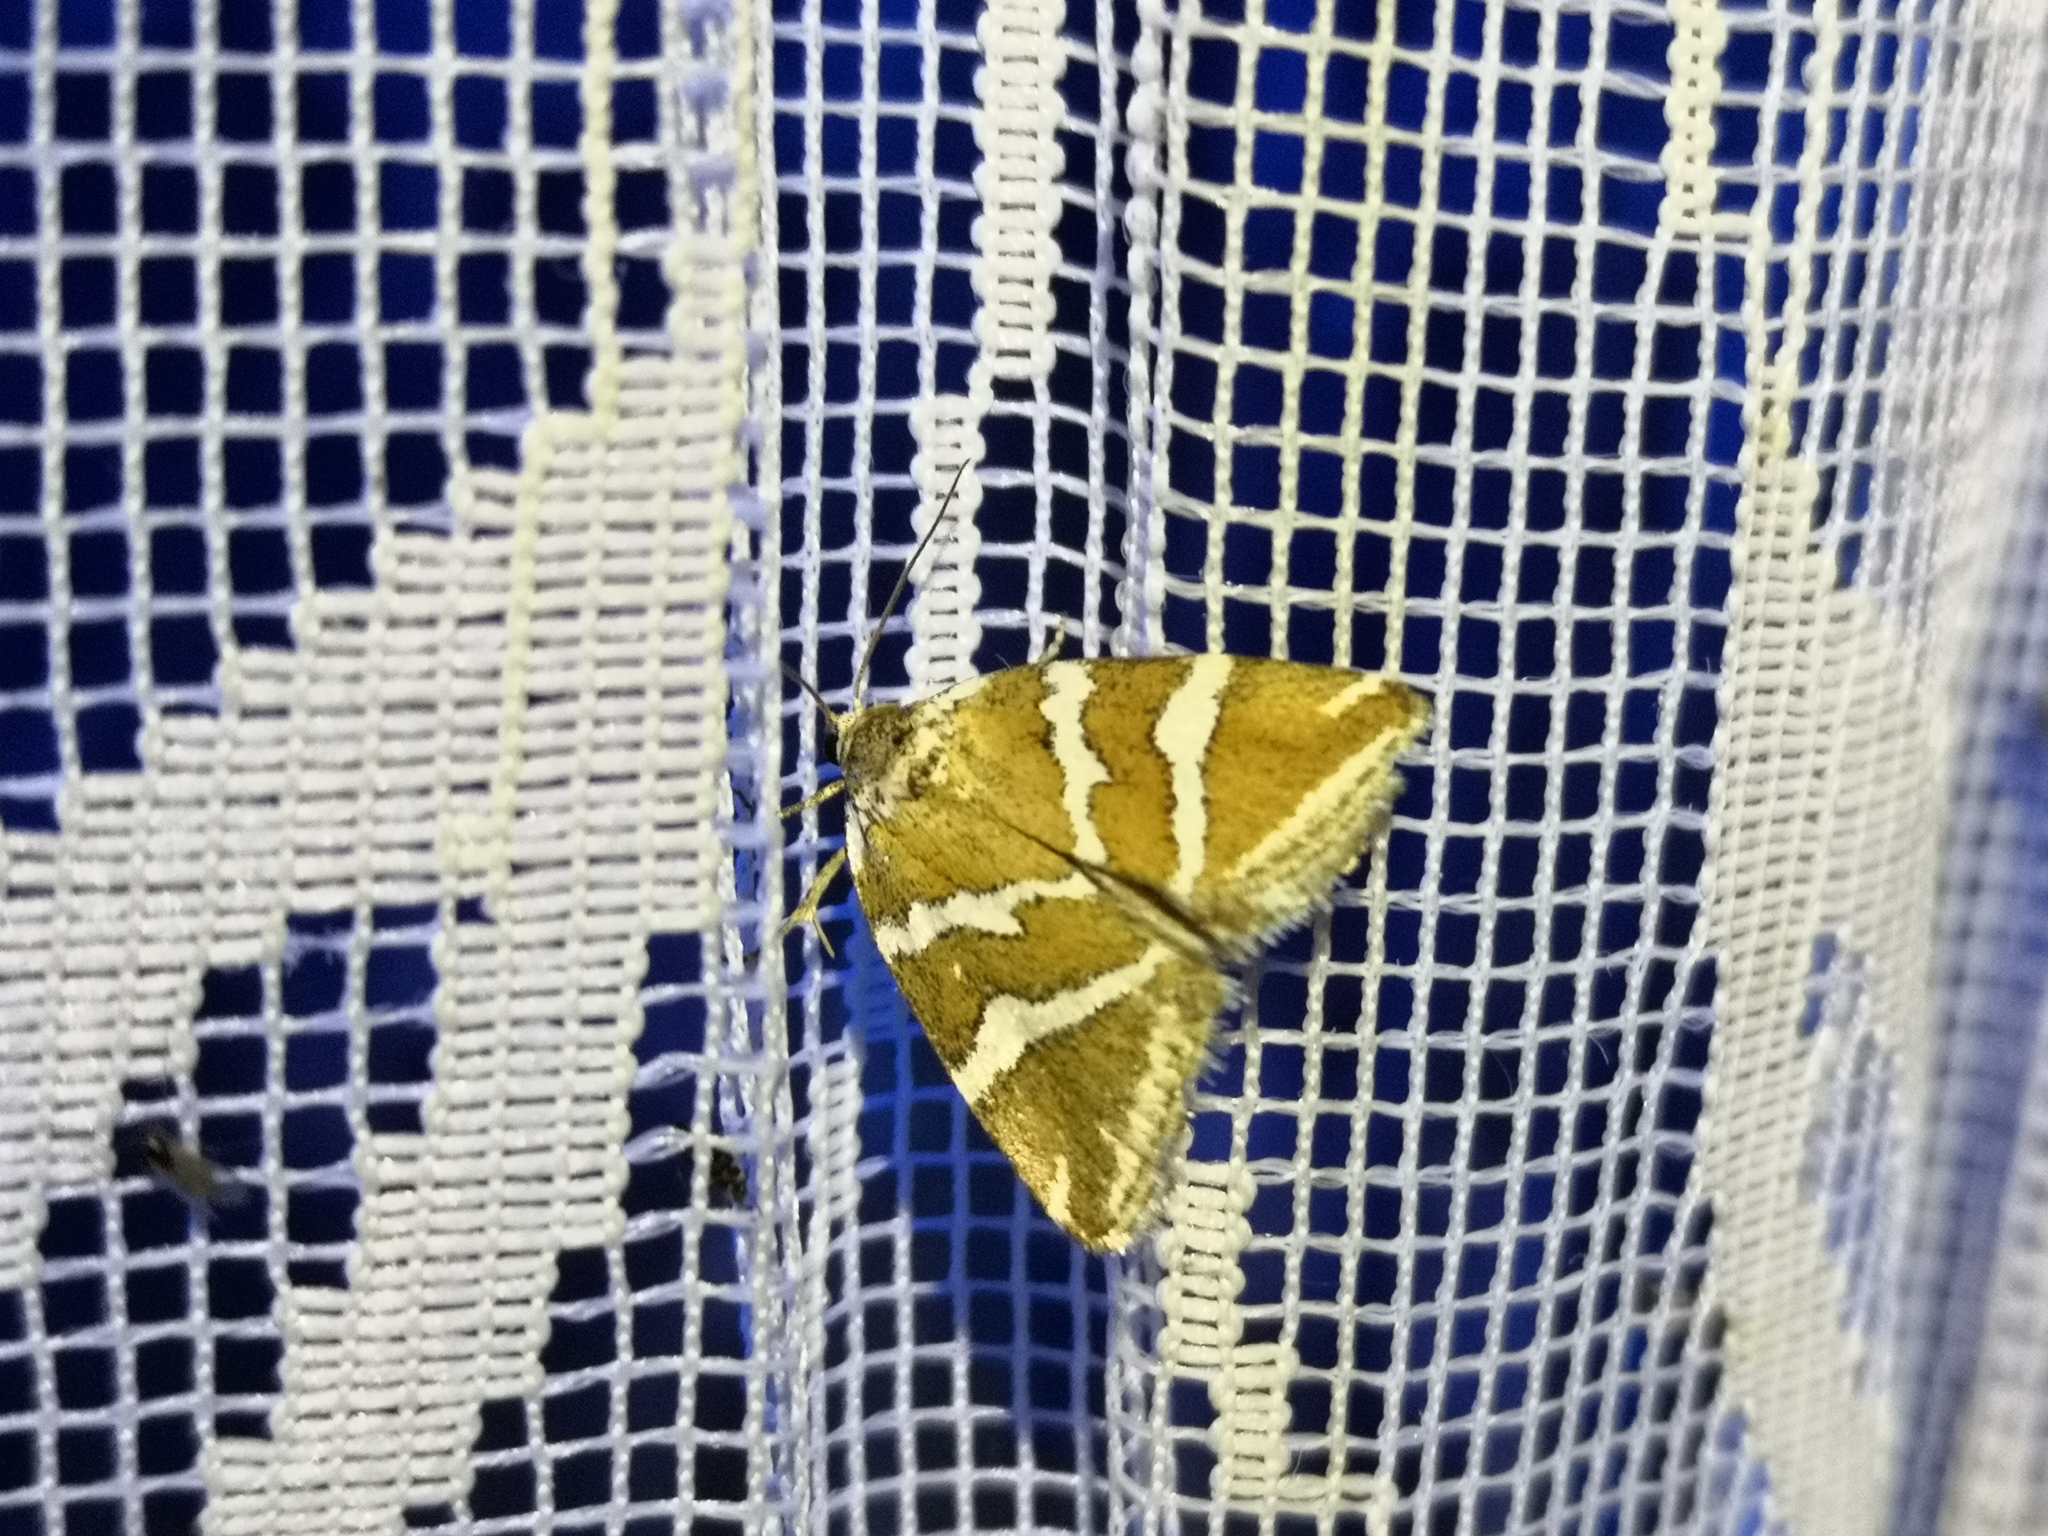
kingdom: Animalia
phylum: Arthropoda
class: Insecta
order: Lepidoptera
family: Noctuidae
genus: Deltote
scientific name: Deltote bankiana
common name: Silver barred
